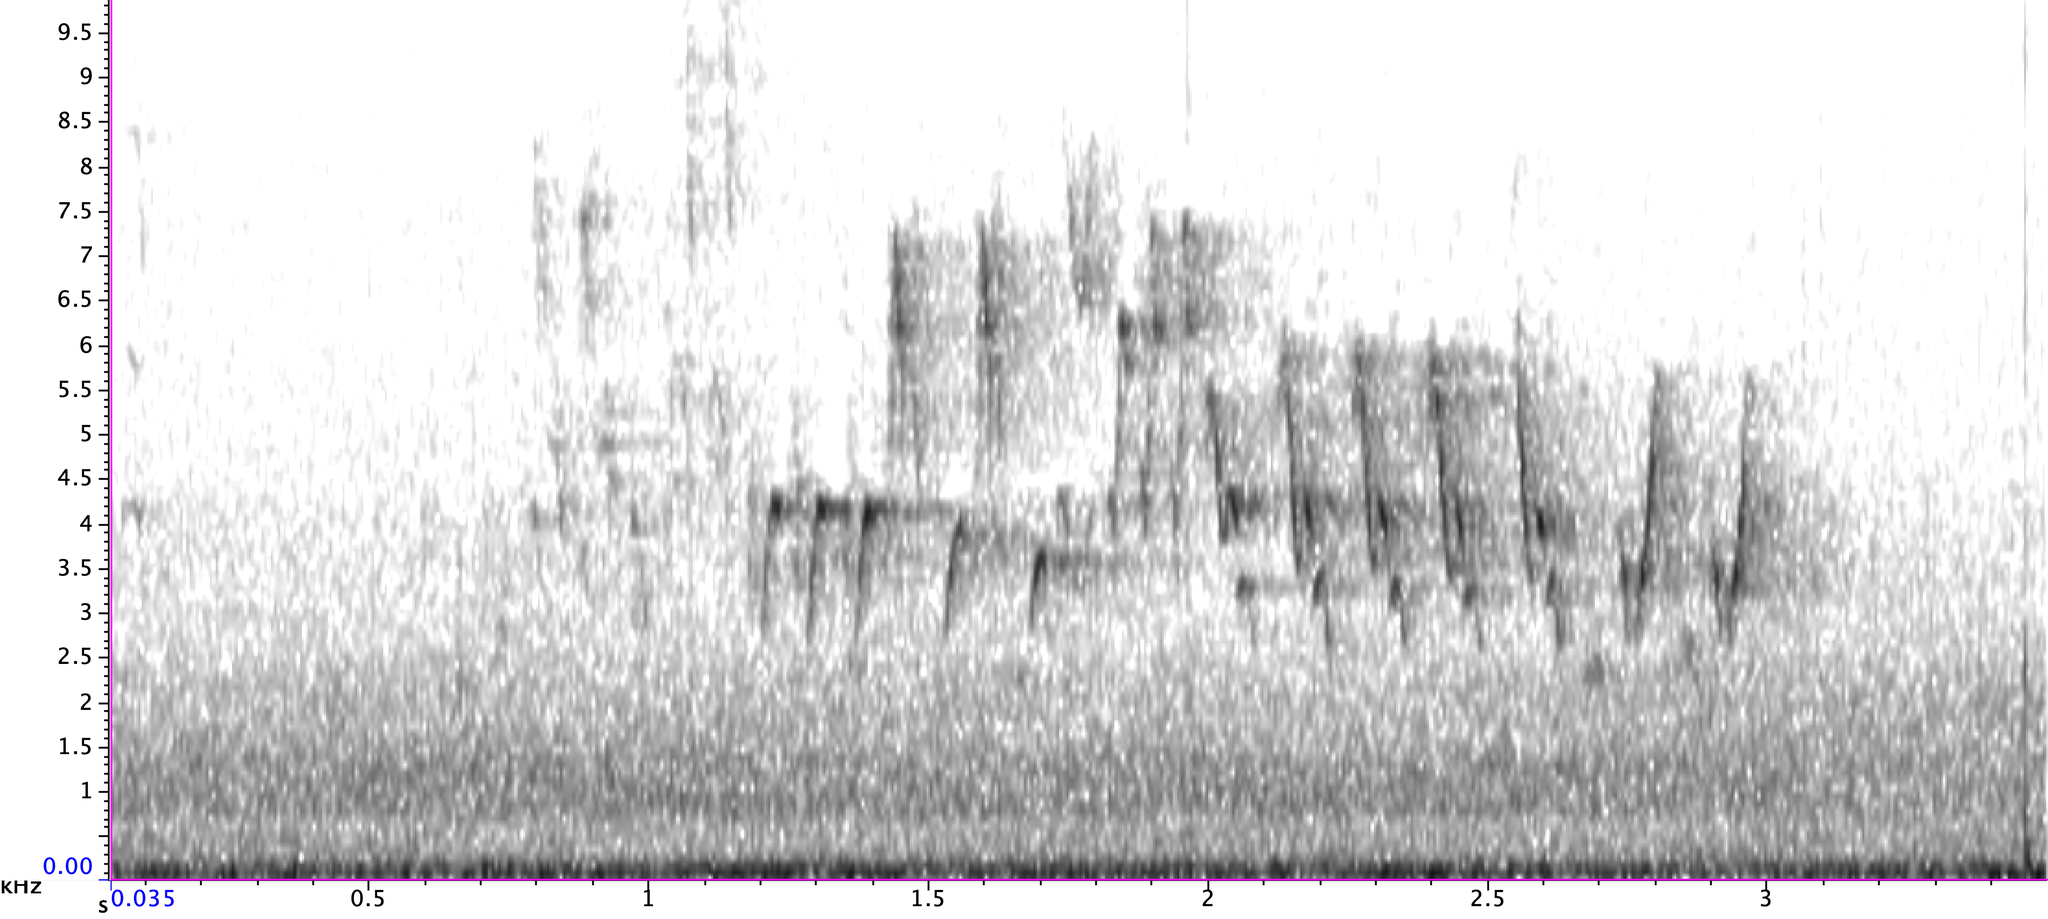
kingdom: Animalia
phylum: Chordata
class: Aves
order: Passeriformes
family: Troglodytidae
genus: Troglodytes
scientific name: Troglodytes aedon
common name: House wren
